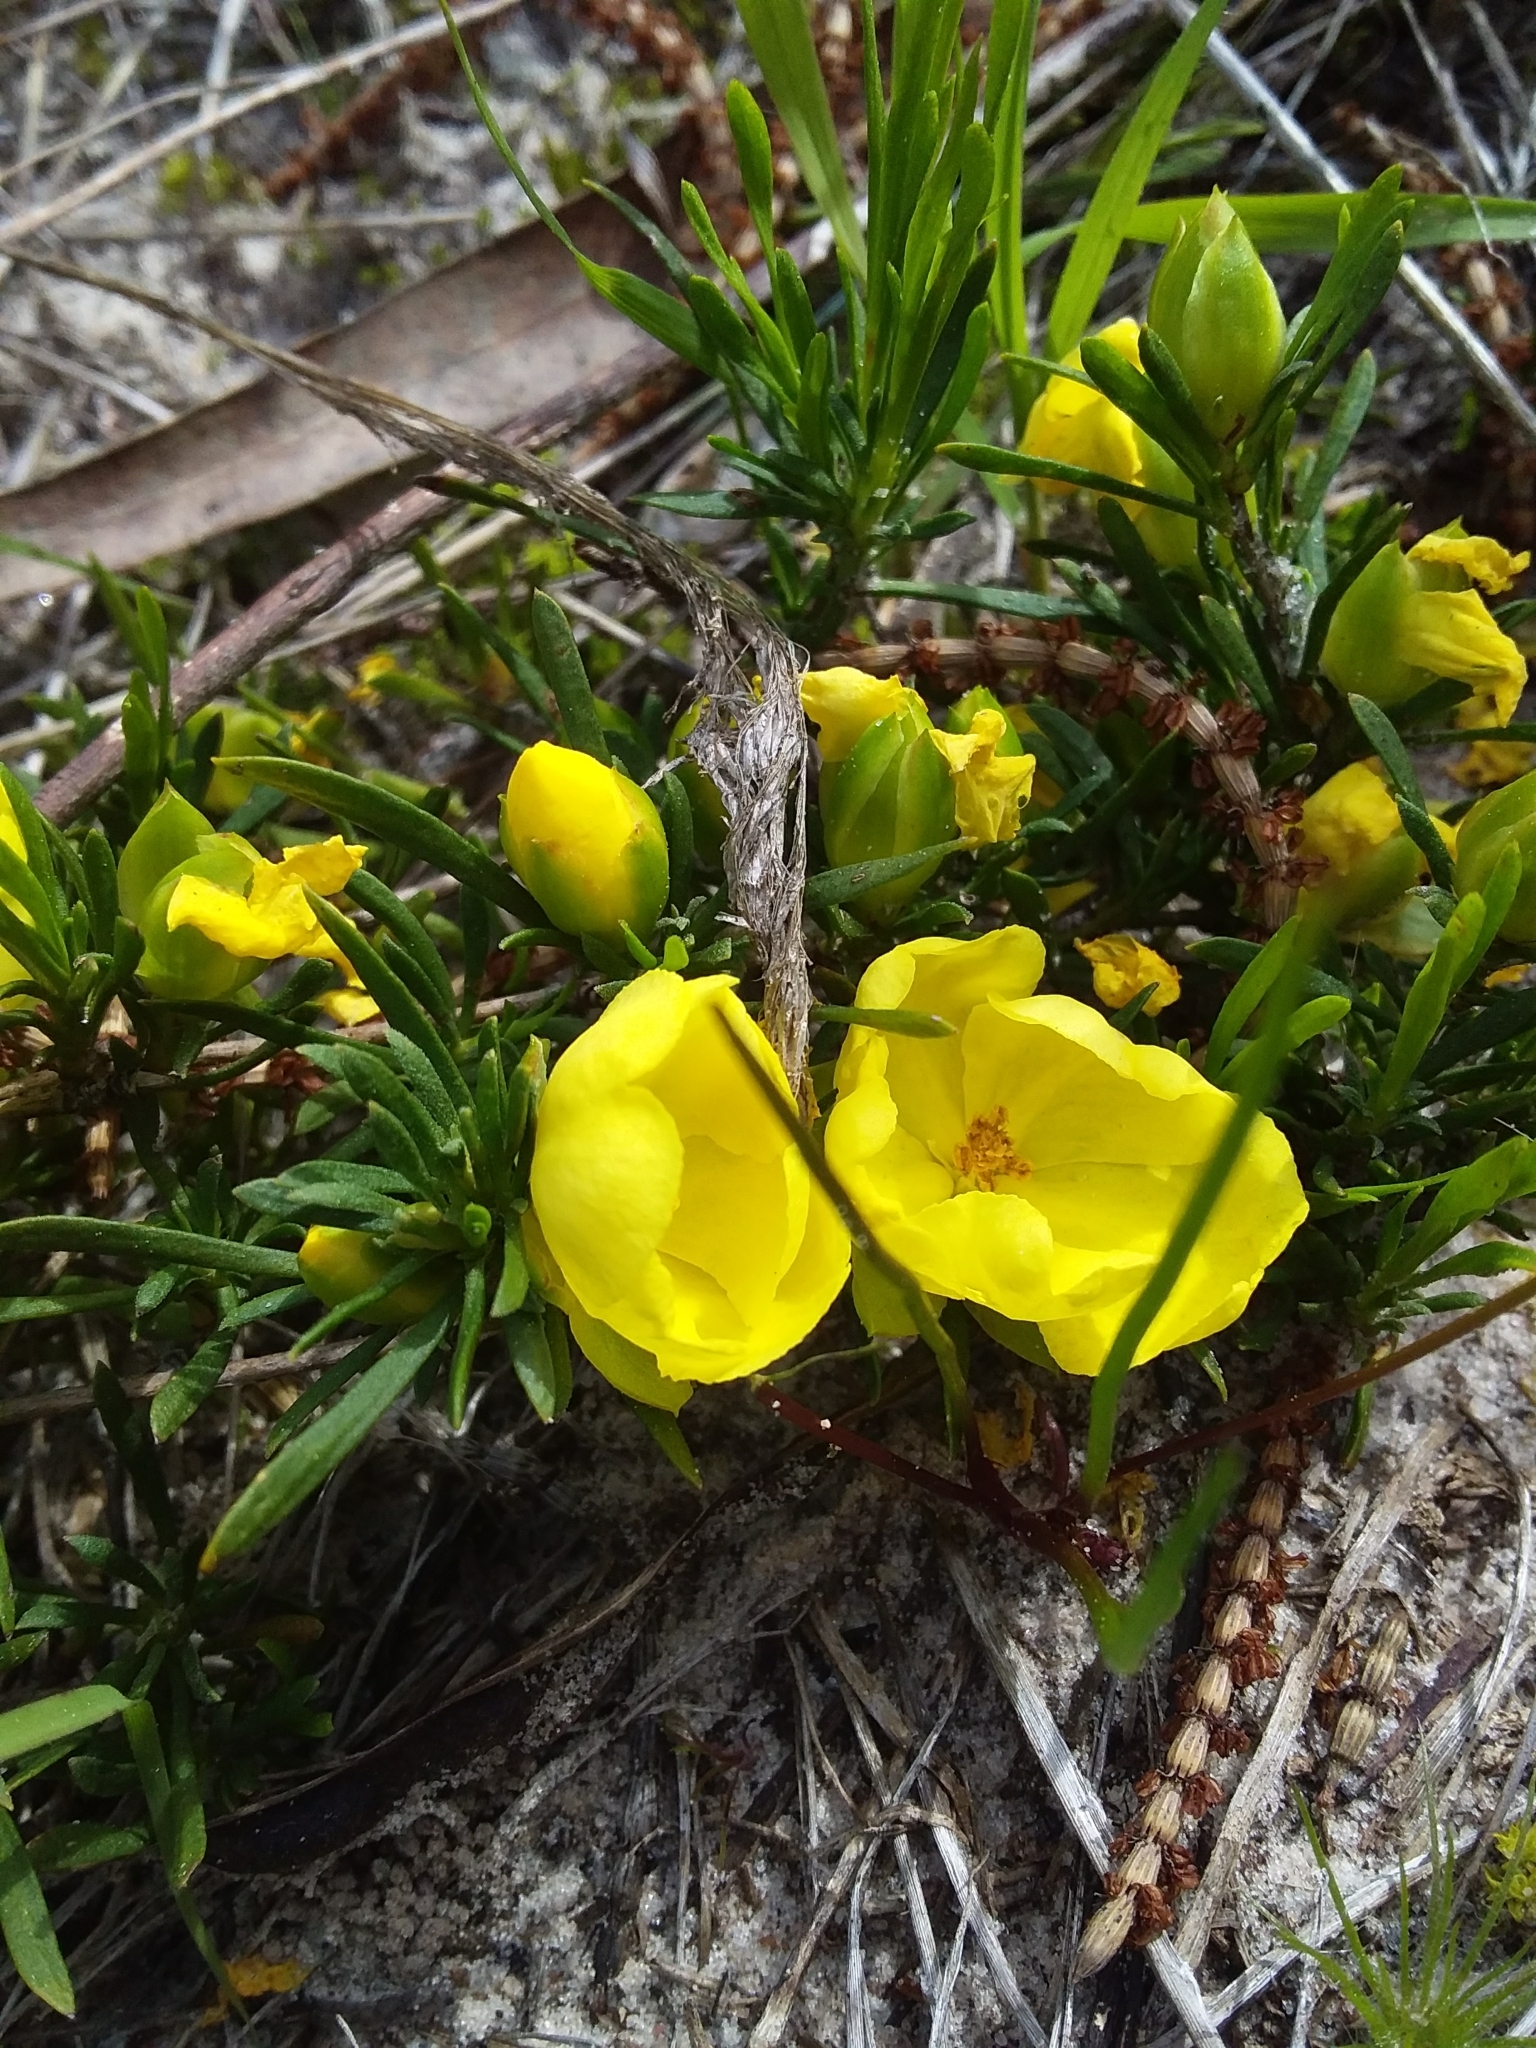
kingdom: Plantae
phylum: Tracheophyta
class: Magnoliopsida
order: Dilleniales
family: Dilleniaceae
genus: Hibbertia
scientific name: Hibbertia virgata
